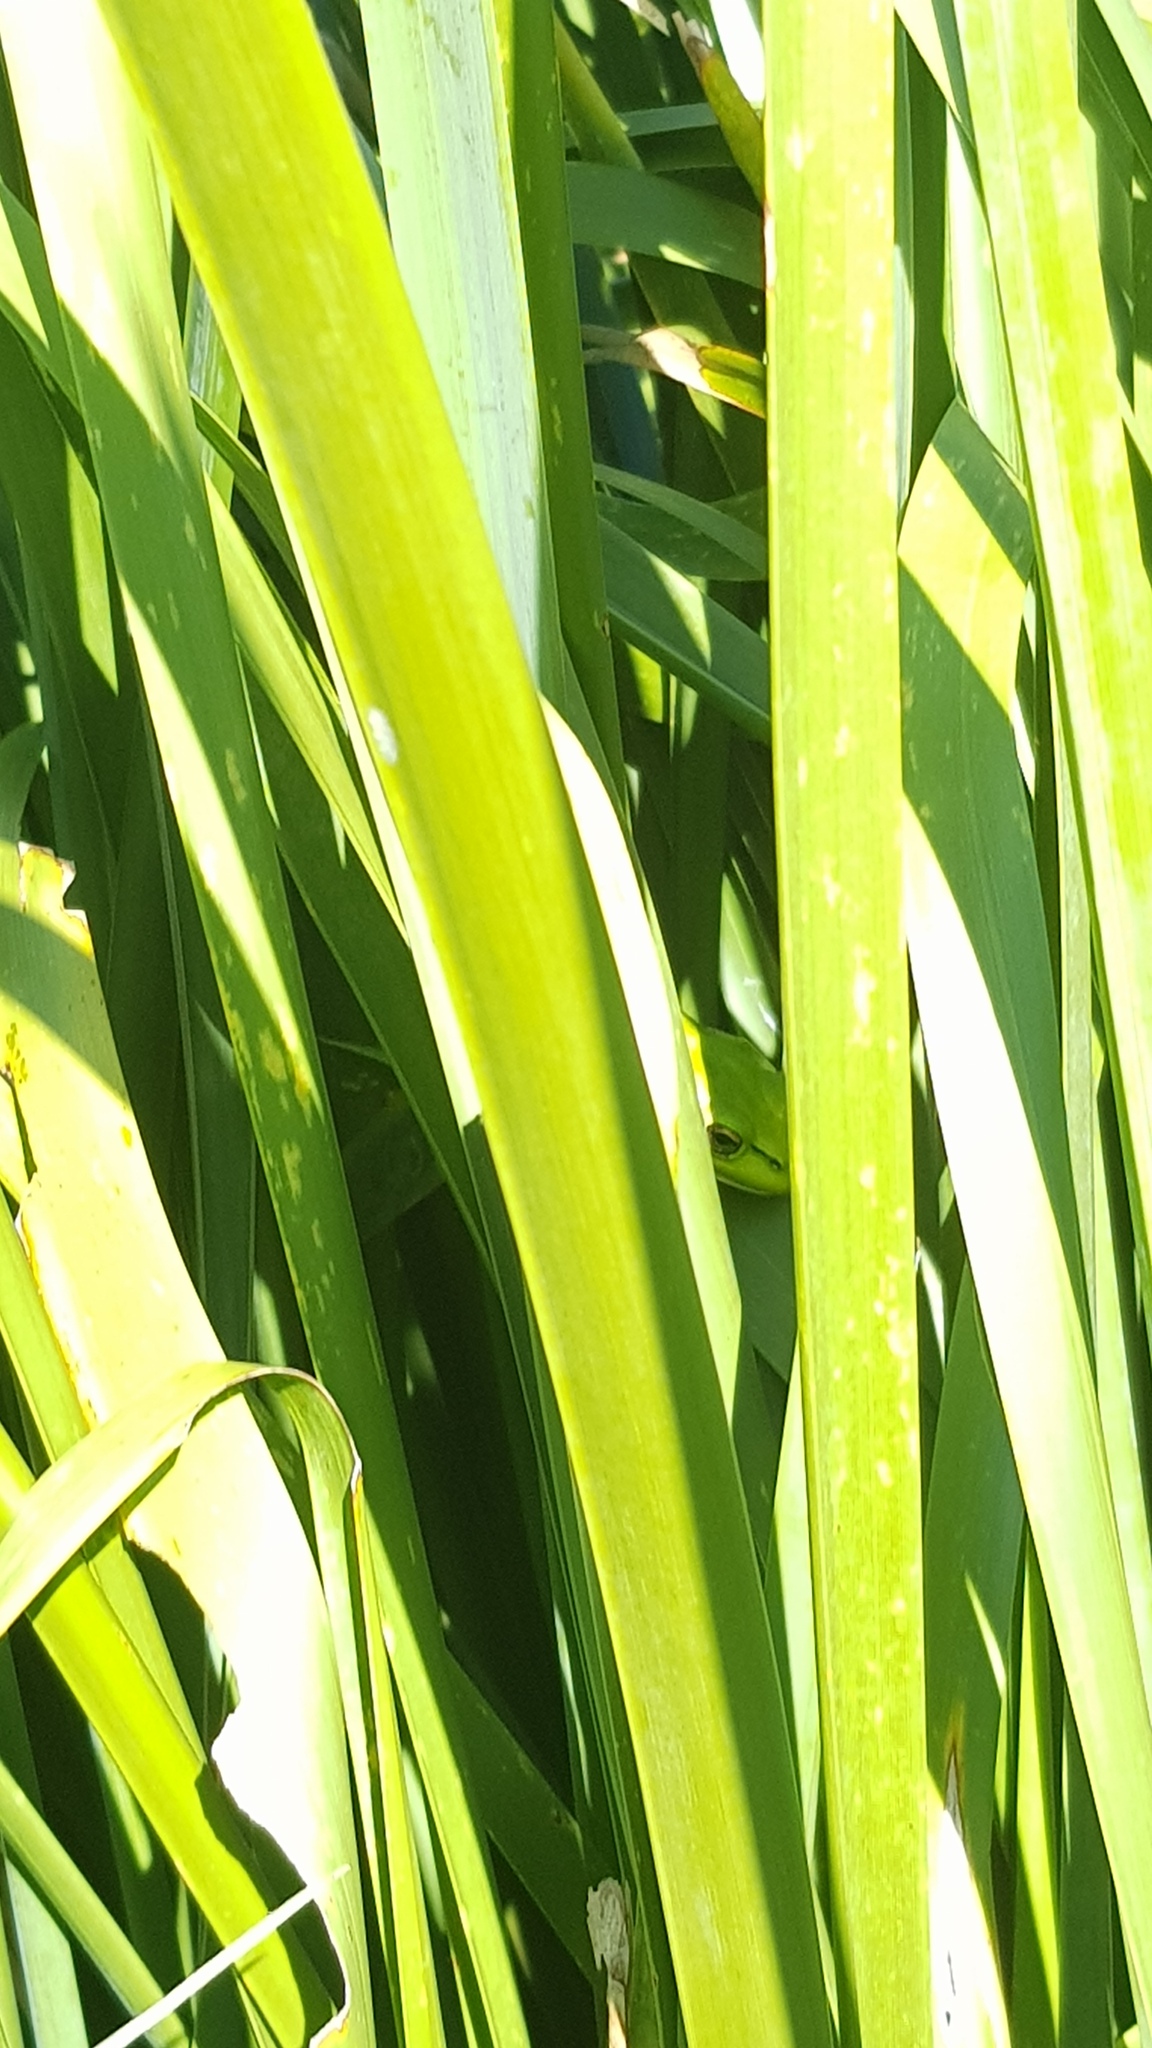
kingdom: Animalia
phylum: Chordata
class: Amphibia
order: Anura
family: Pelodryadidae
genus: Ranoidea
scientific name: Ranoidea aurea
